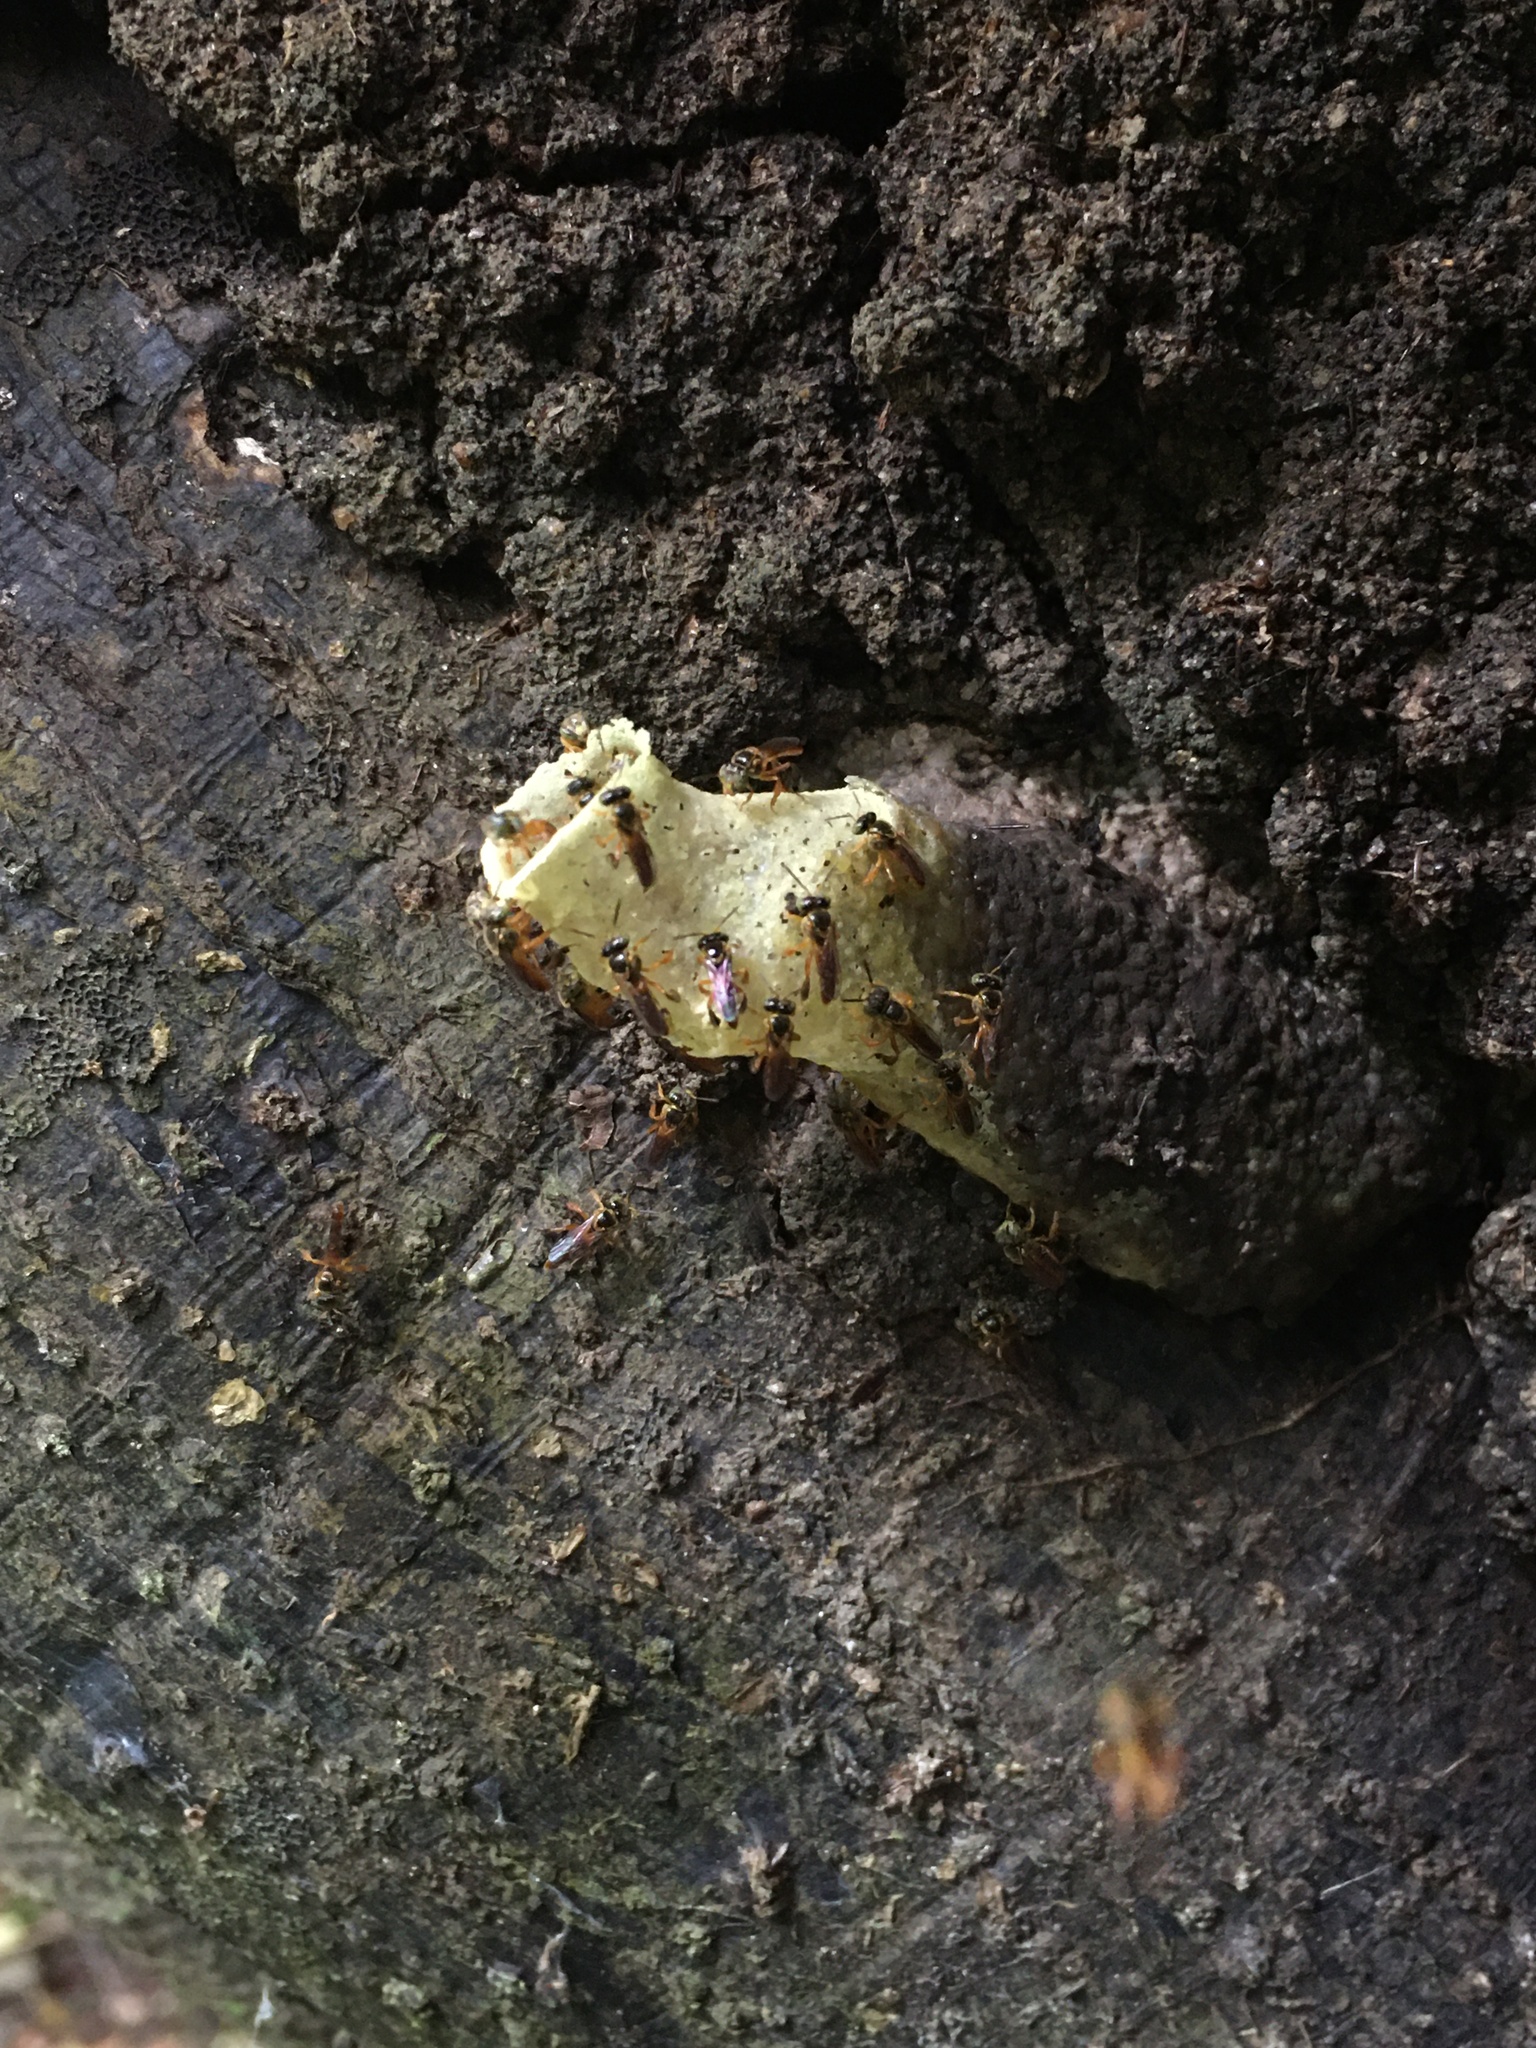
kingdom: Animalia
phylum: Arthropoda
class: Insecta
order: Hymenoptera
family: Apidae
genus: Tetragonisca
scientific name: Tetragonisca angustula
